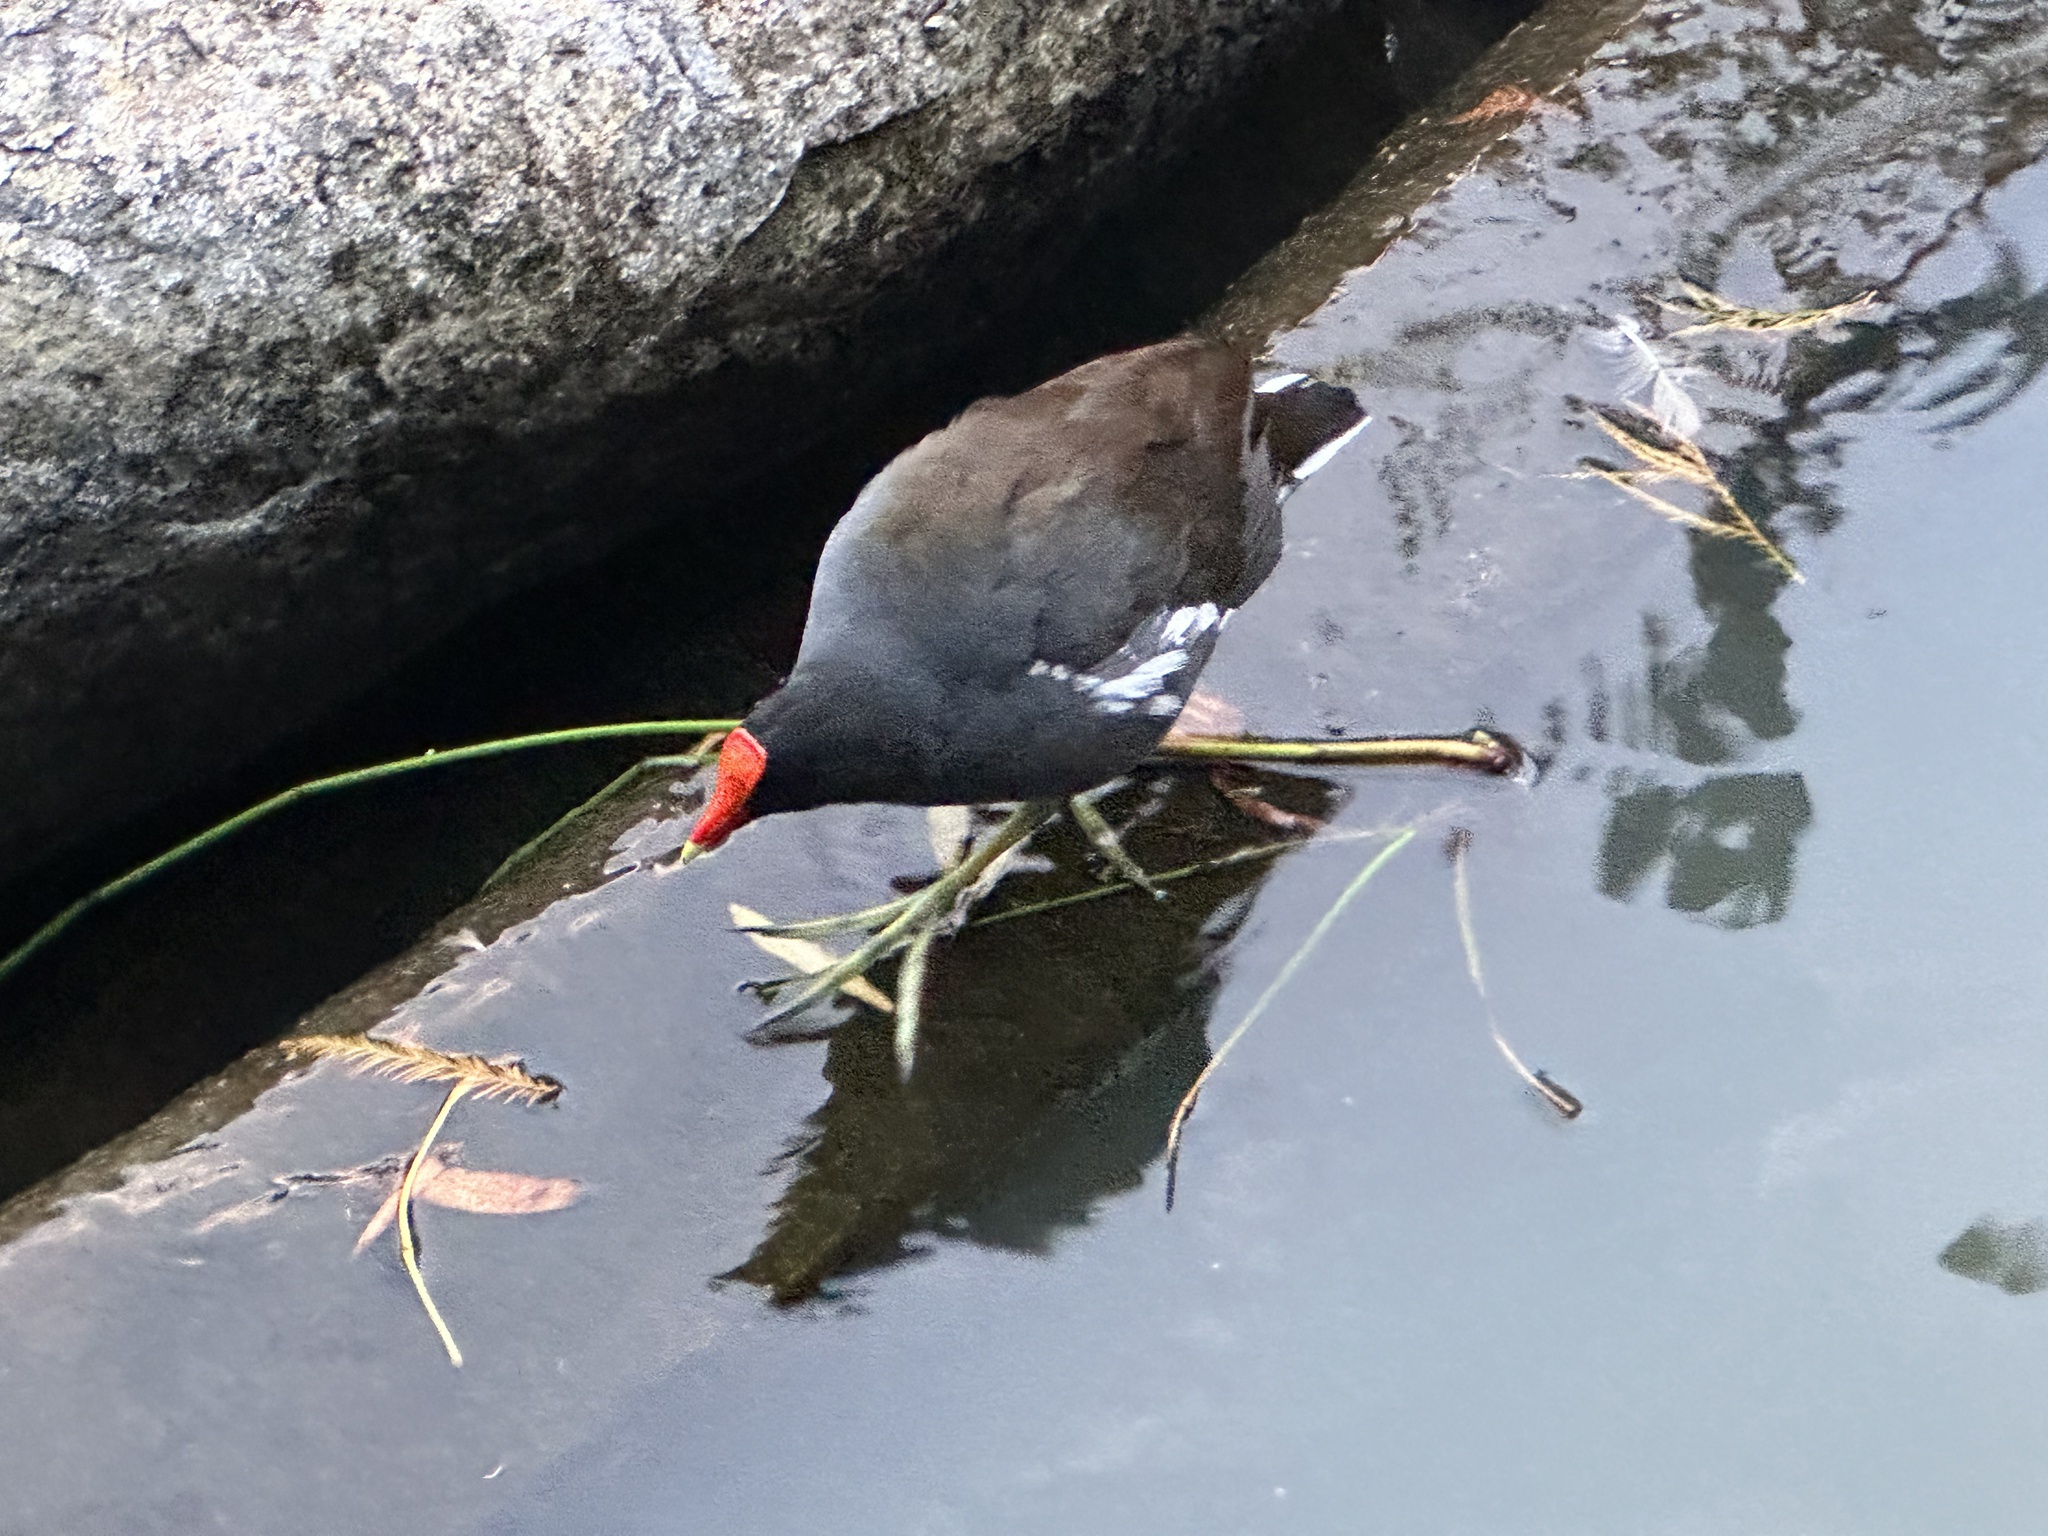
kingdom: Animalia
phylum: Chordata
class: Aves
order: Gruiformes
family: Rallidae
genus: Gallinula
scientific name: Gallinula chloropus
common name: Common moorhen
